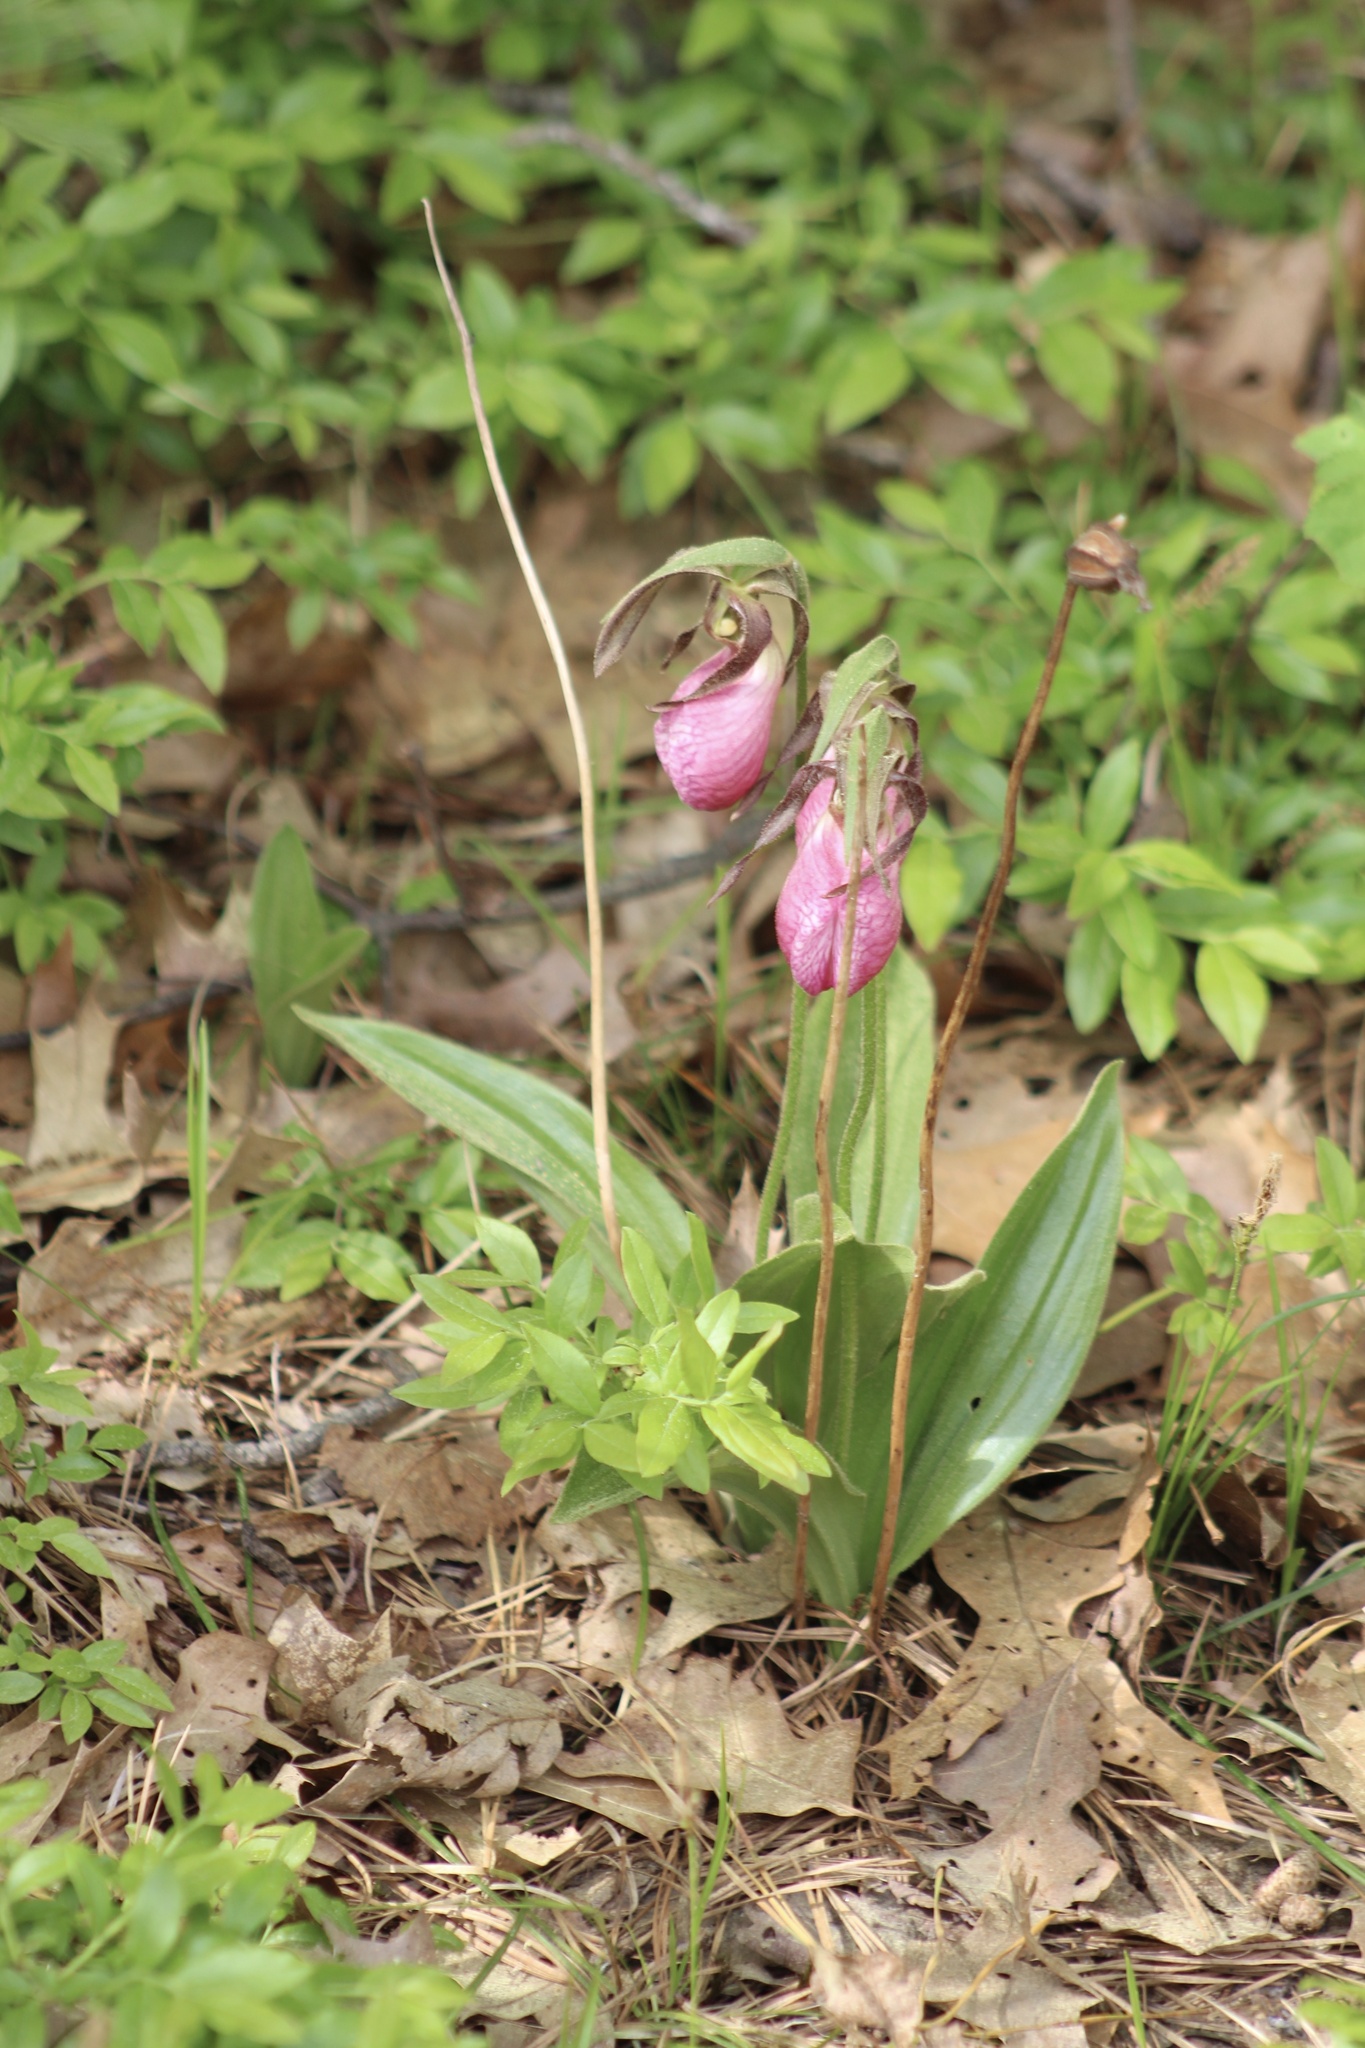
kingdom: Plantae
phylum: Tracheophyta
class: Liliopsida
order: Asparagales
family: Orchidaceae
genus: Cypripedium
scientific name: Cypripedium acaule
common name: Pink lady's-slipper
